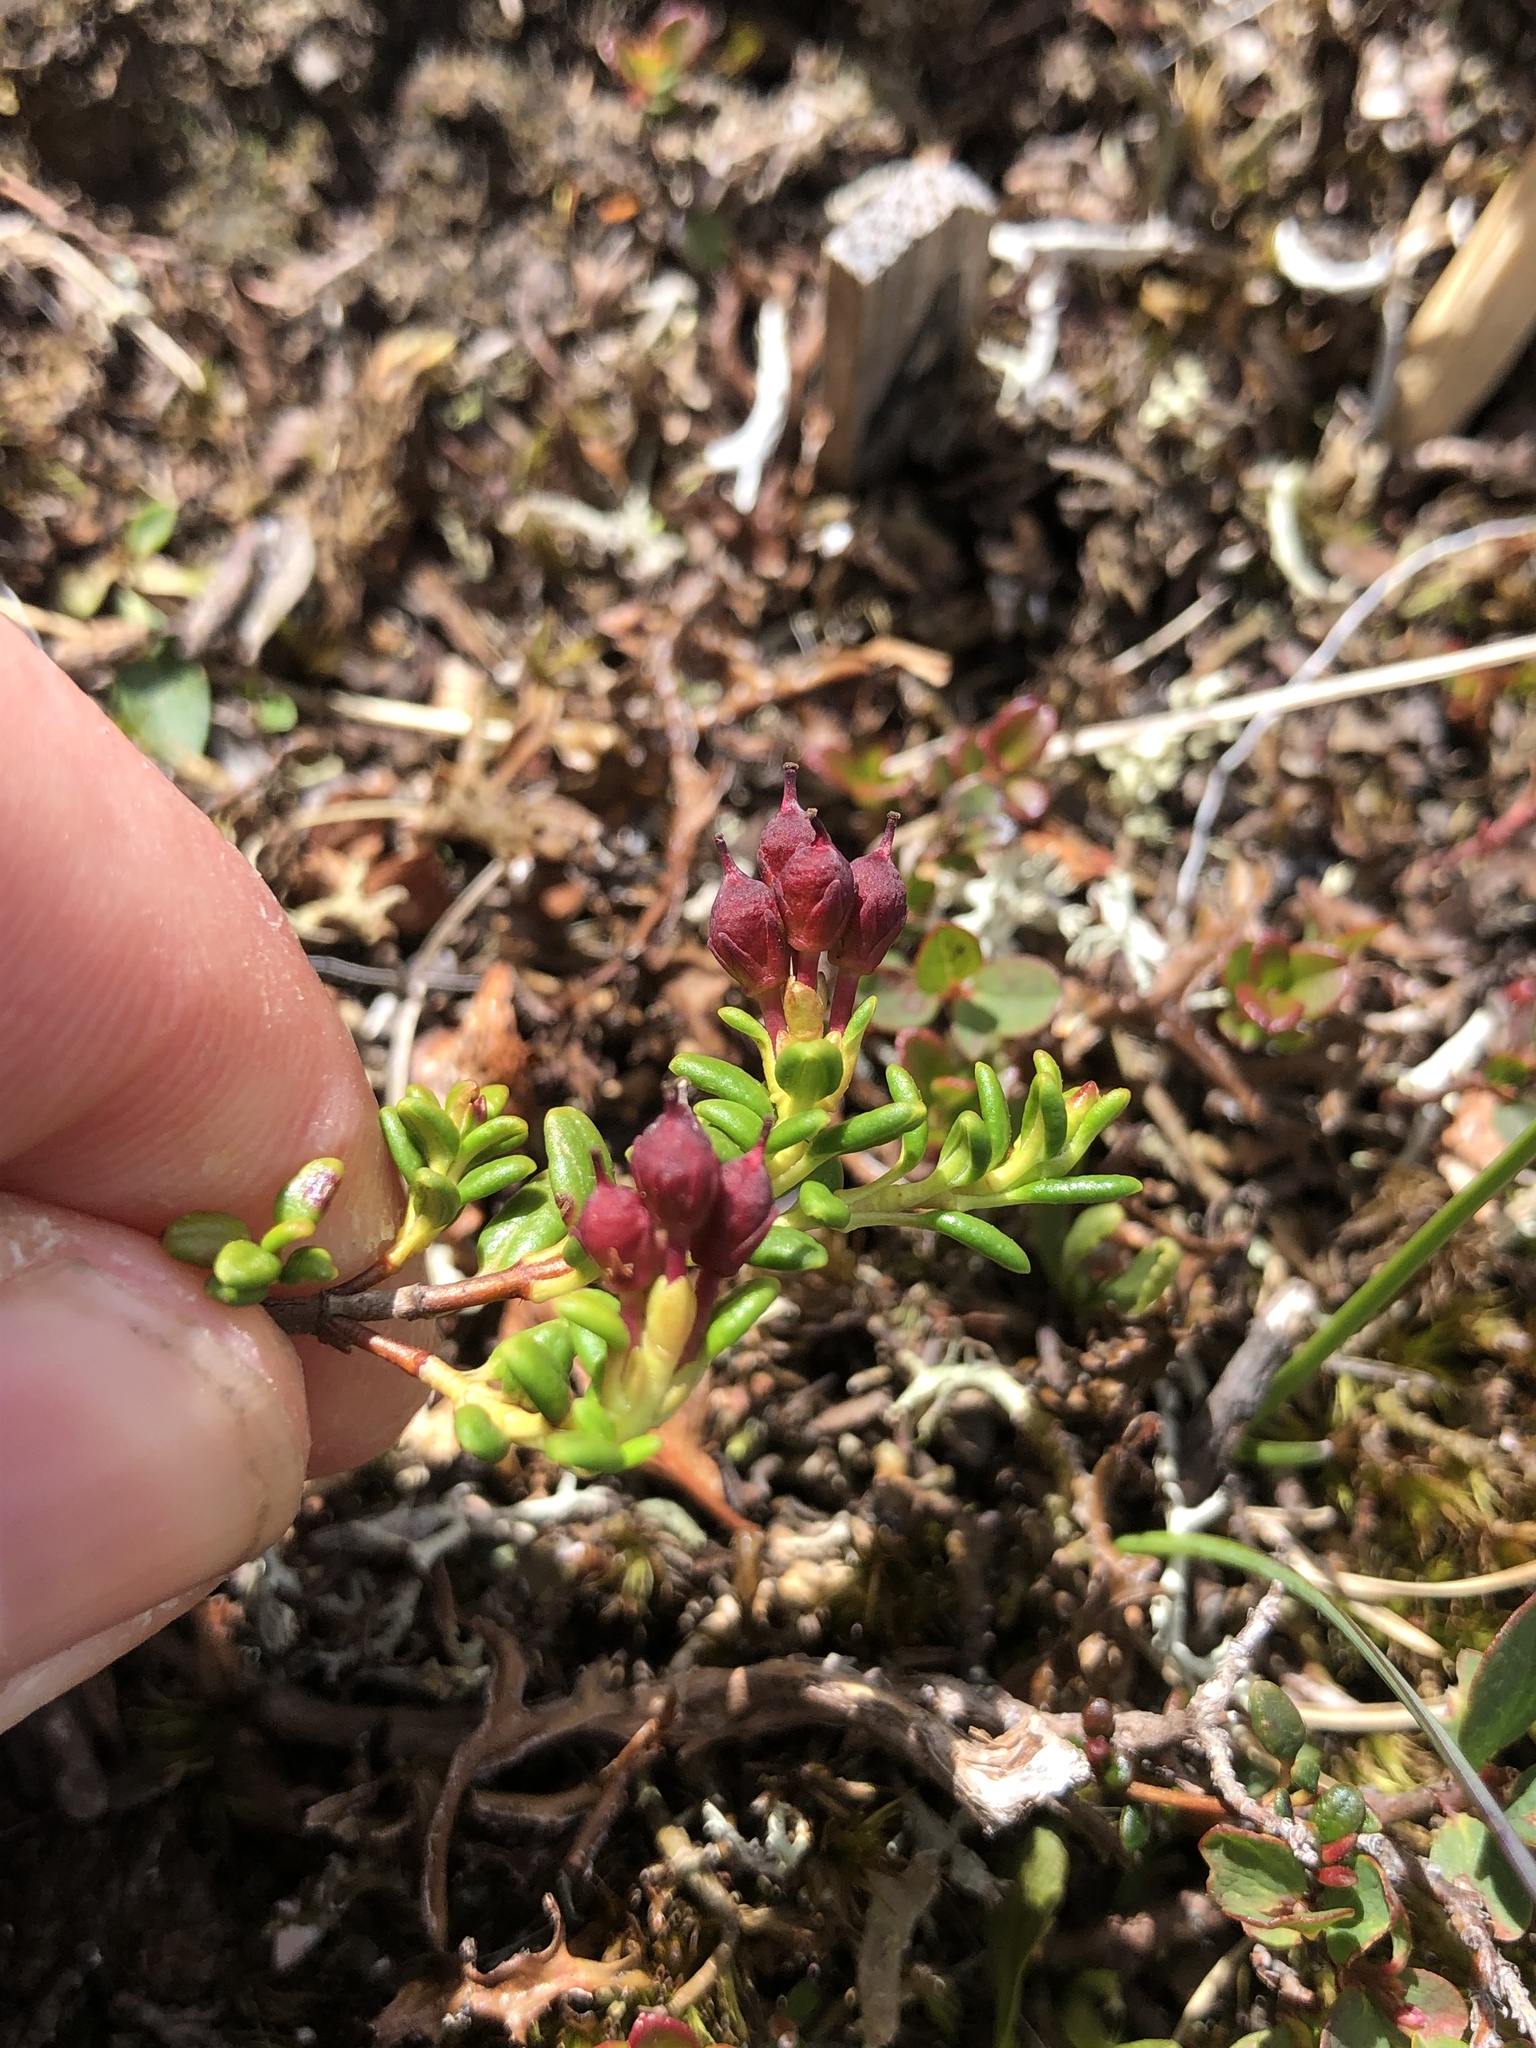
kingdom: Plantae
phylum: Tracheophyta
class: Magnoliopsida
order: Ericales
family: Ericaceae
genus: Kalmia
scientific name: Kalmia procumbens
